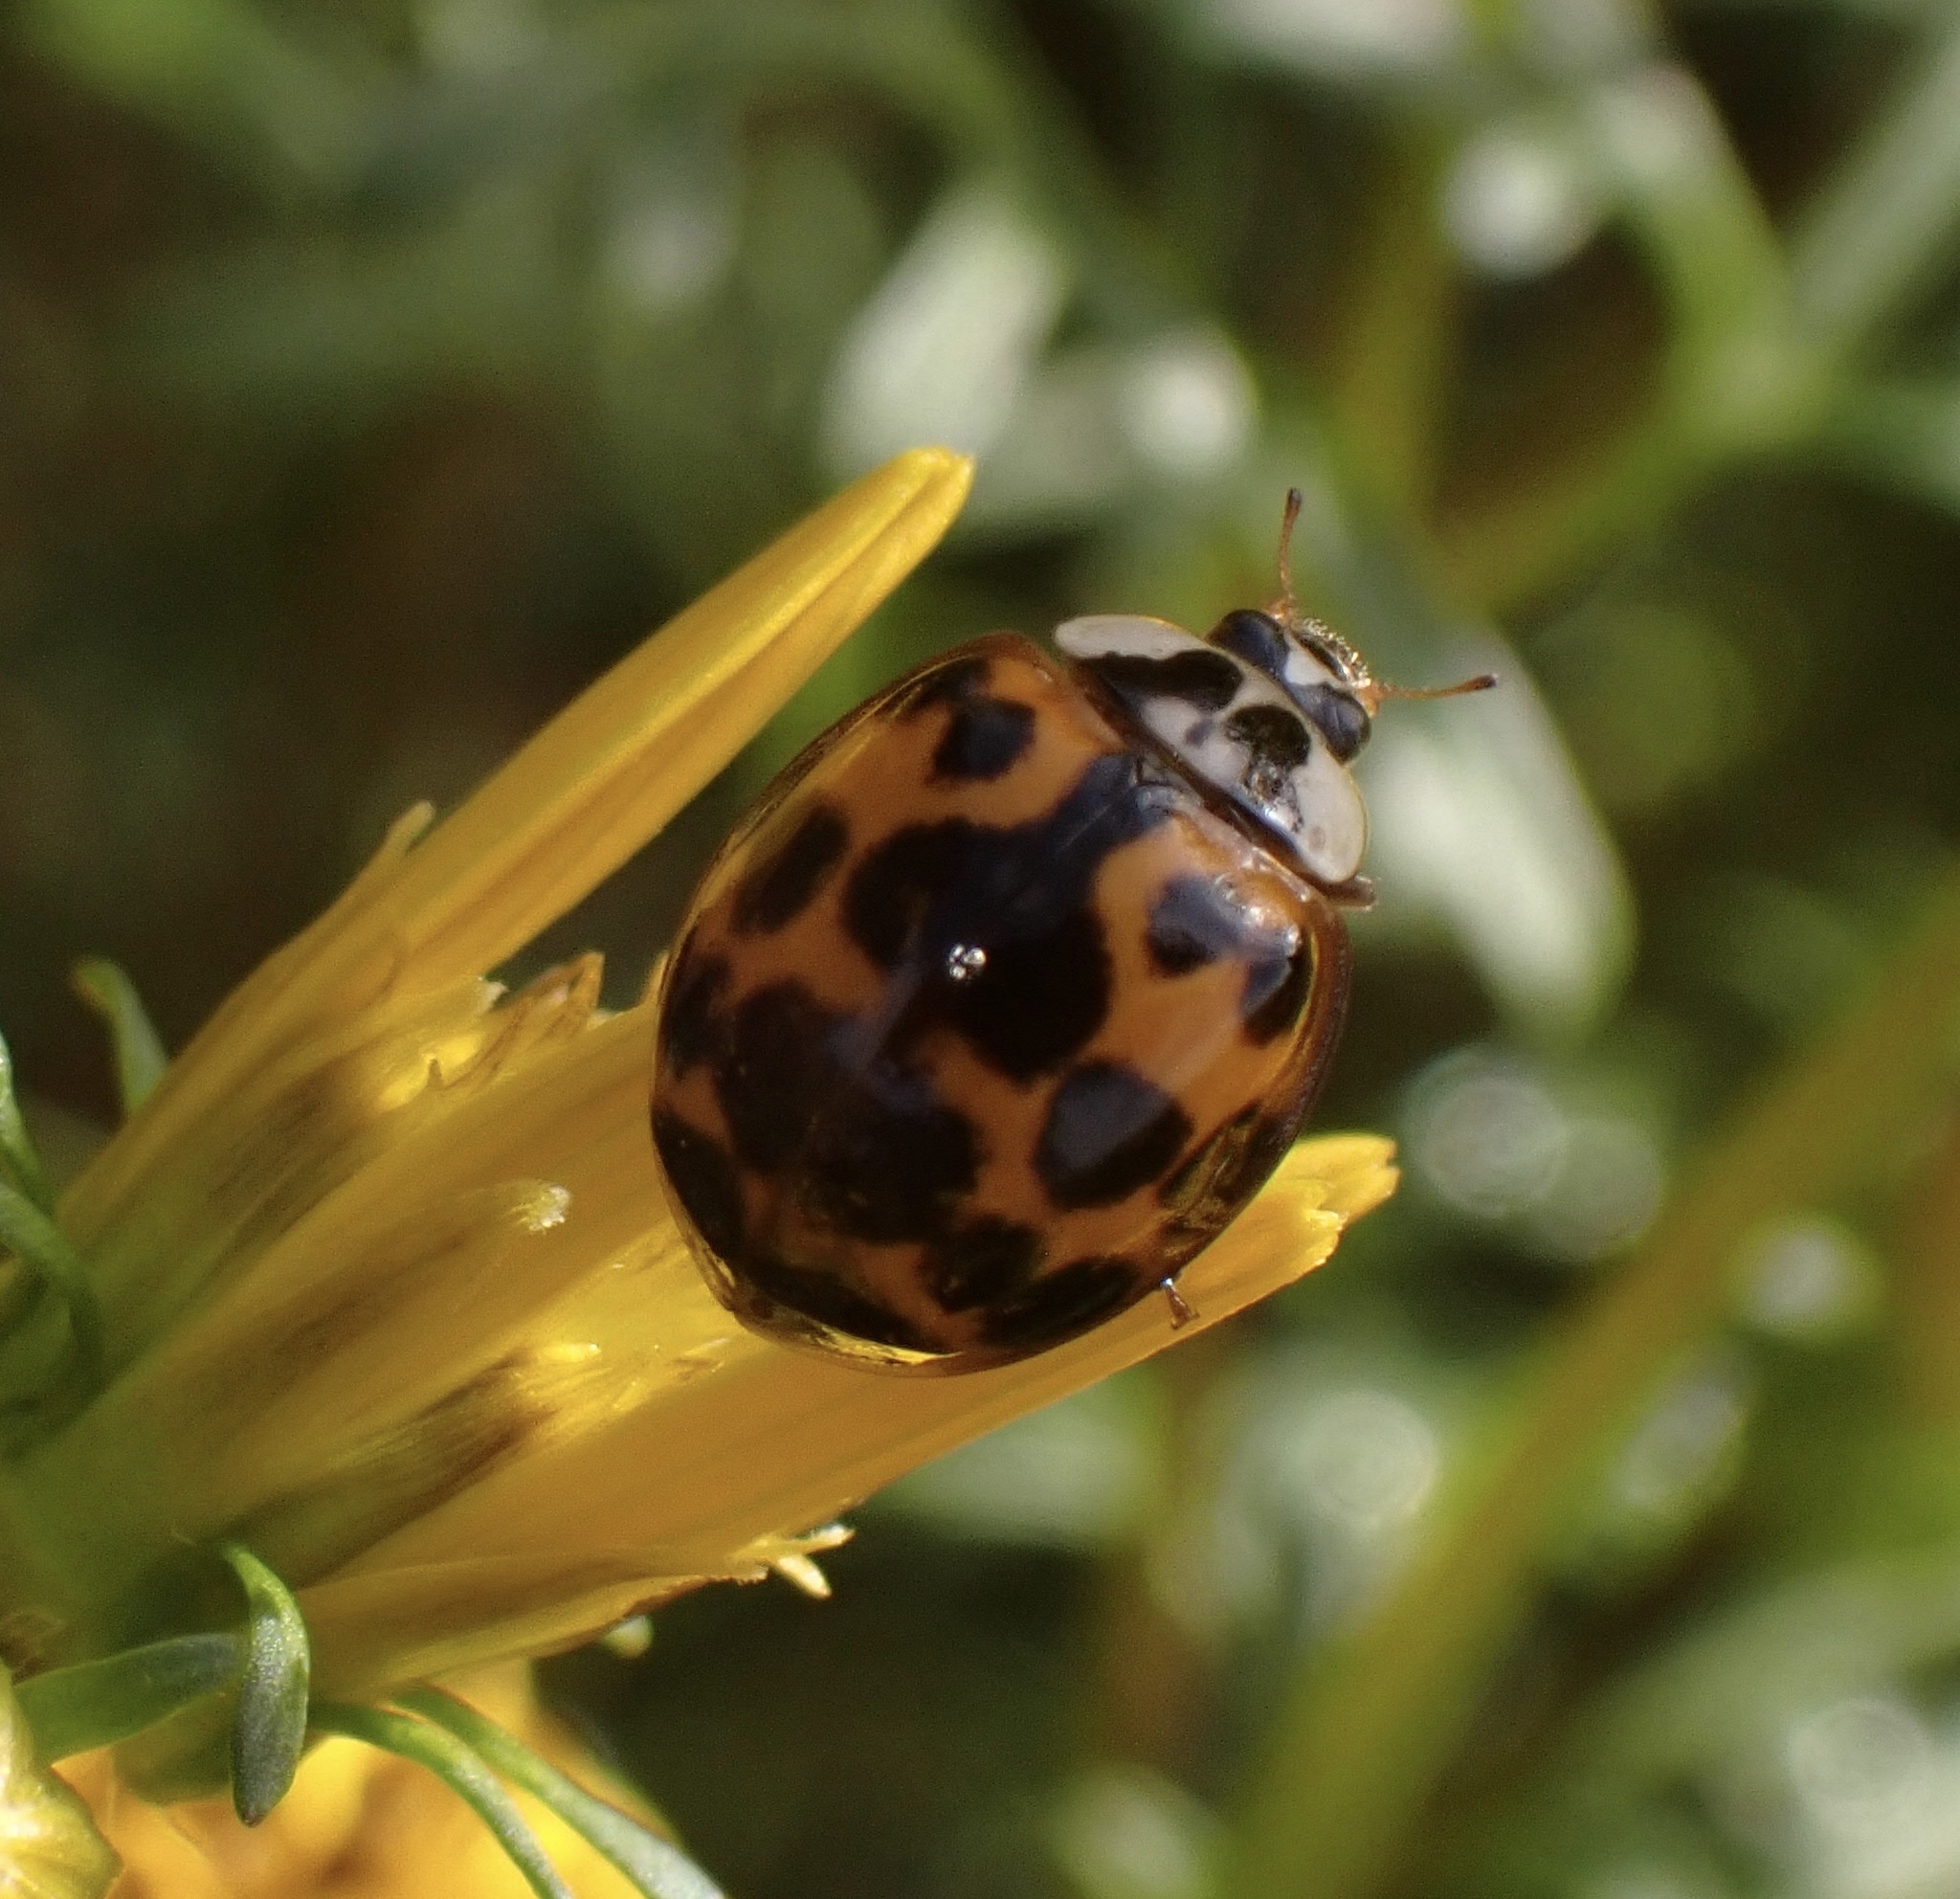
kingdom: Animalia
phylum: Arthropoda
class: Insecta
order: Coleoptera
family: Coccinellidae
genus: Harmonia
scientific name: Harmonia axyridis
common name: Harlequin ladybird
